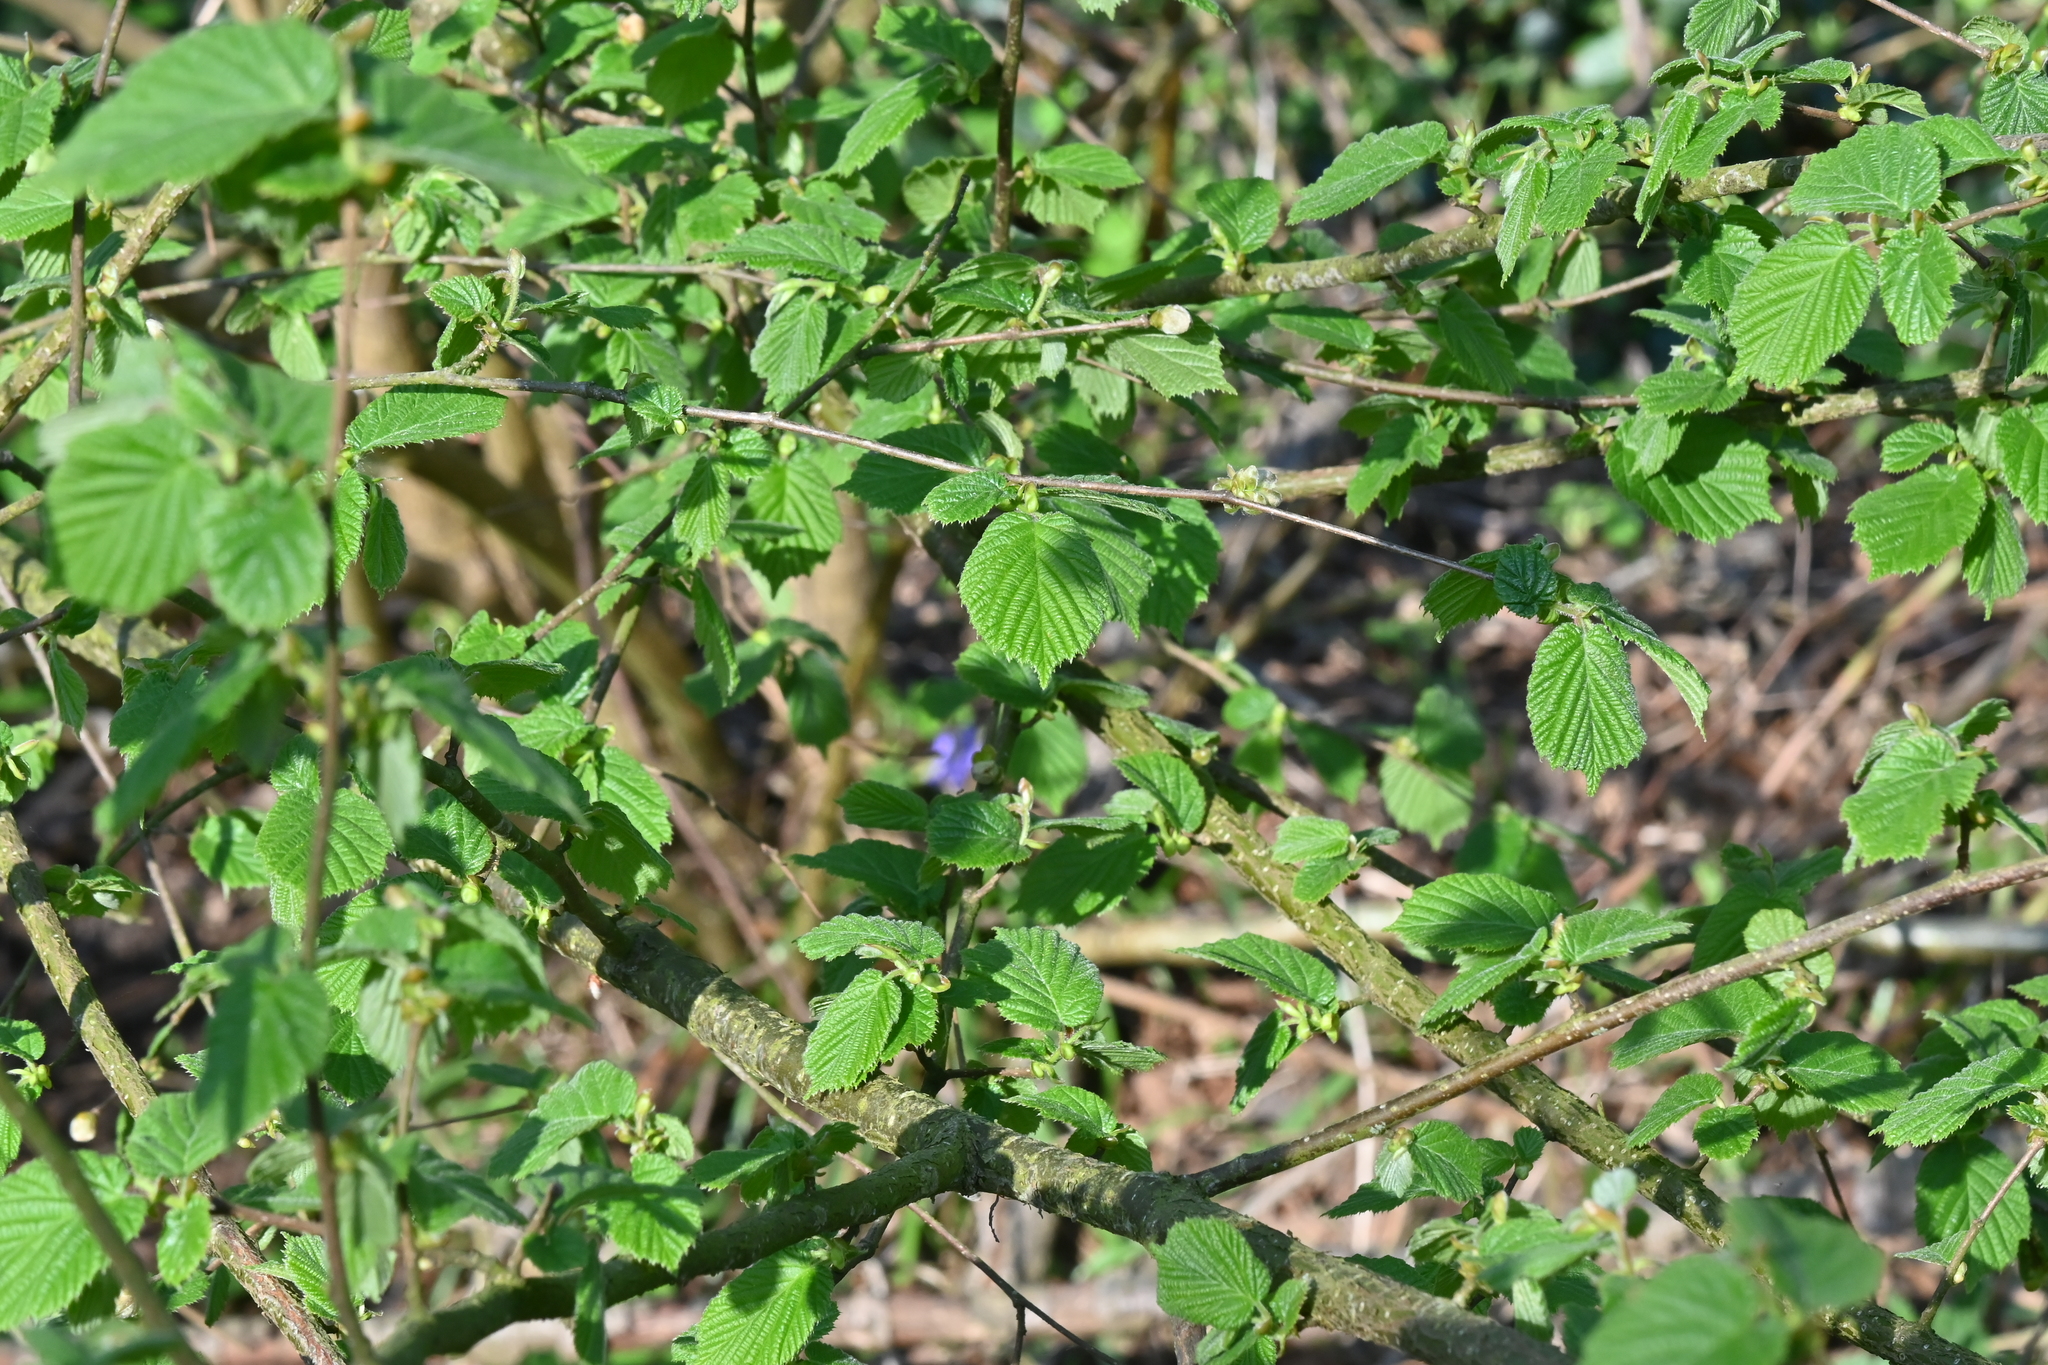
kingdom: Plantae
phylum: Tracheophyta
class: Magnoliopsida
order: Fagales
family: Betulaceae
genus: Corylus
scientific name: Corylus avellana
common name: European hazel
